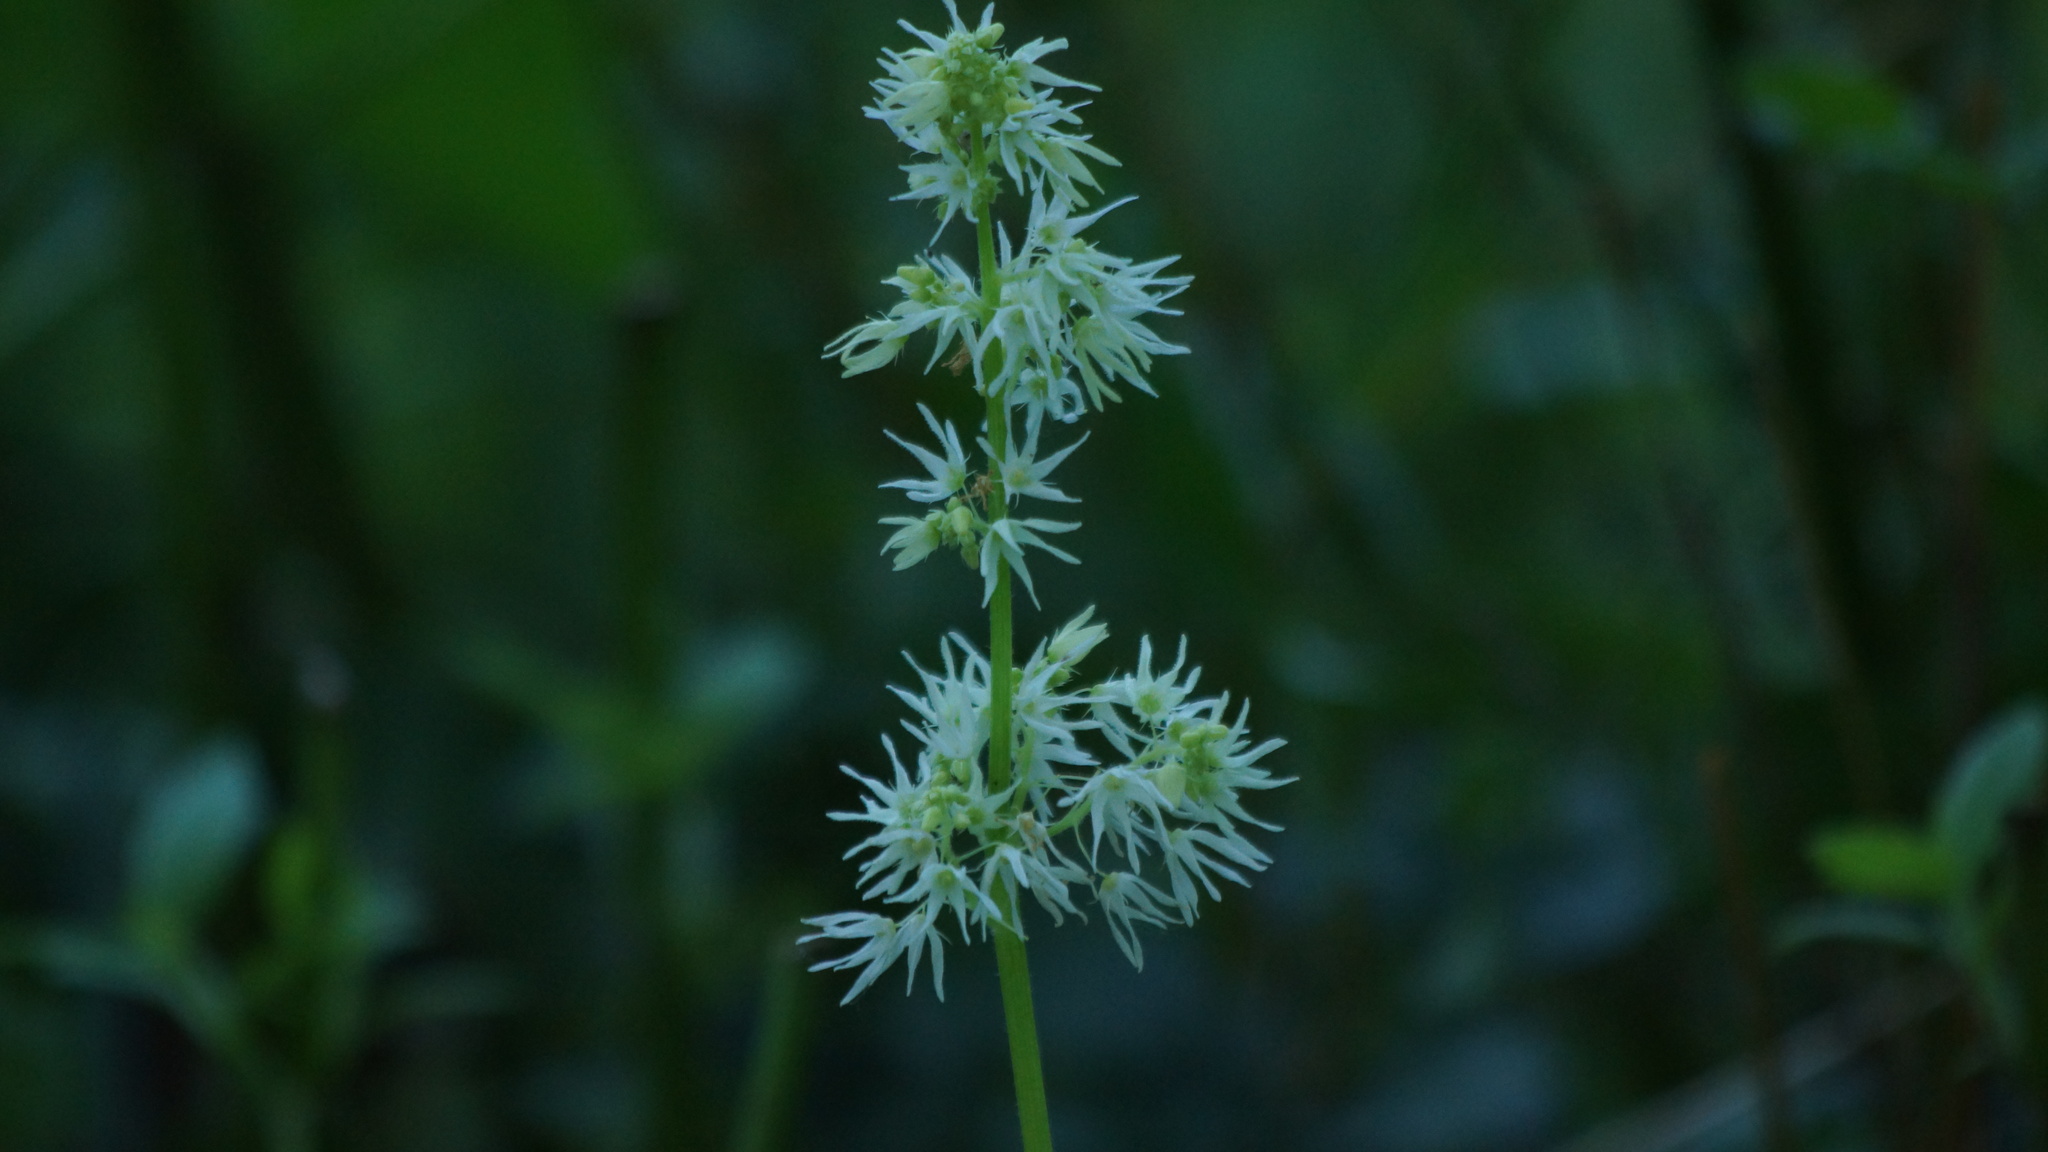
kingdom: Plantae
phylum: Tracheophyta
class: Magnoliopsida
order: Cucurbitales
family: Cucurbitaceae
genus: Echinocystis
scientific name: Echinocystis lobata
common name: Wild cucumber
